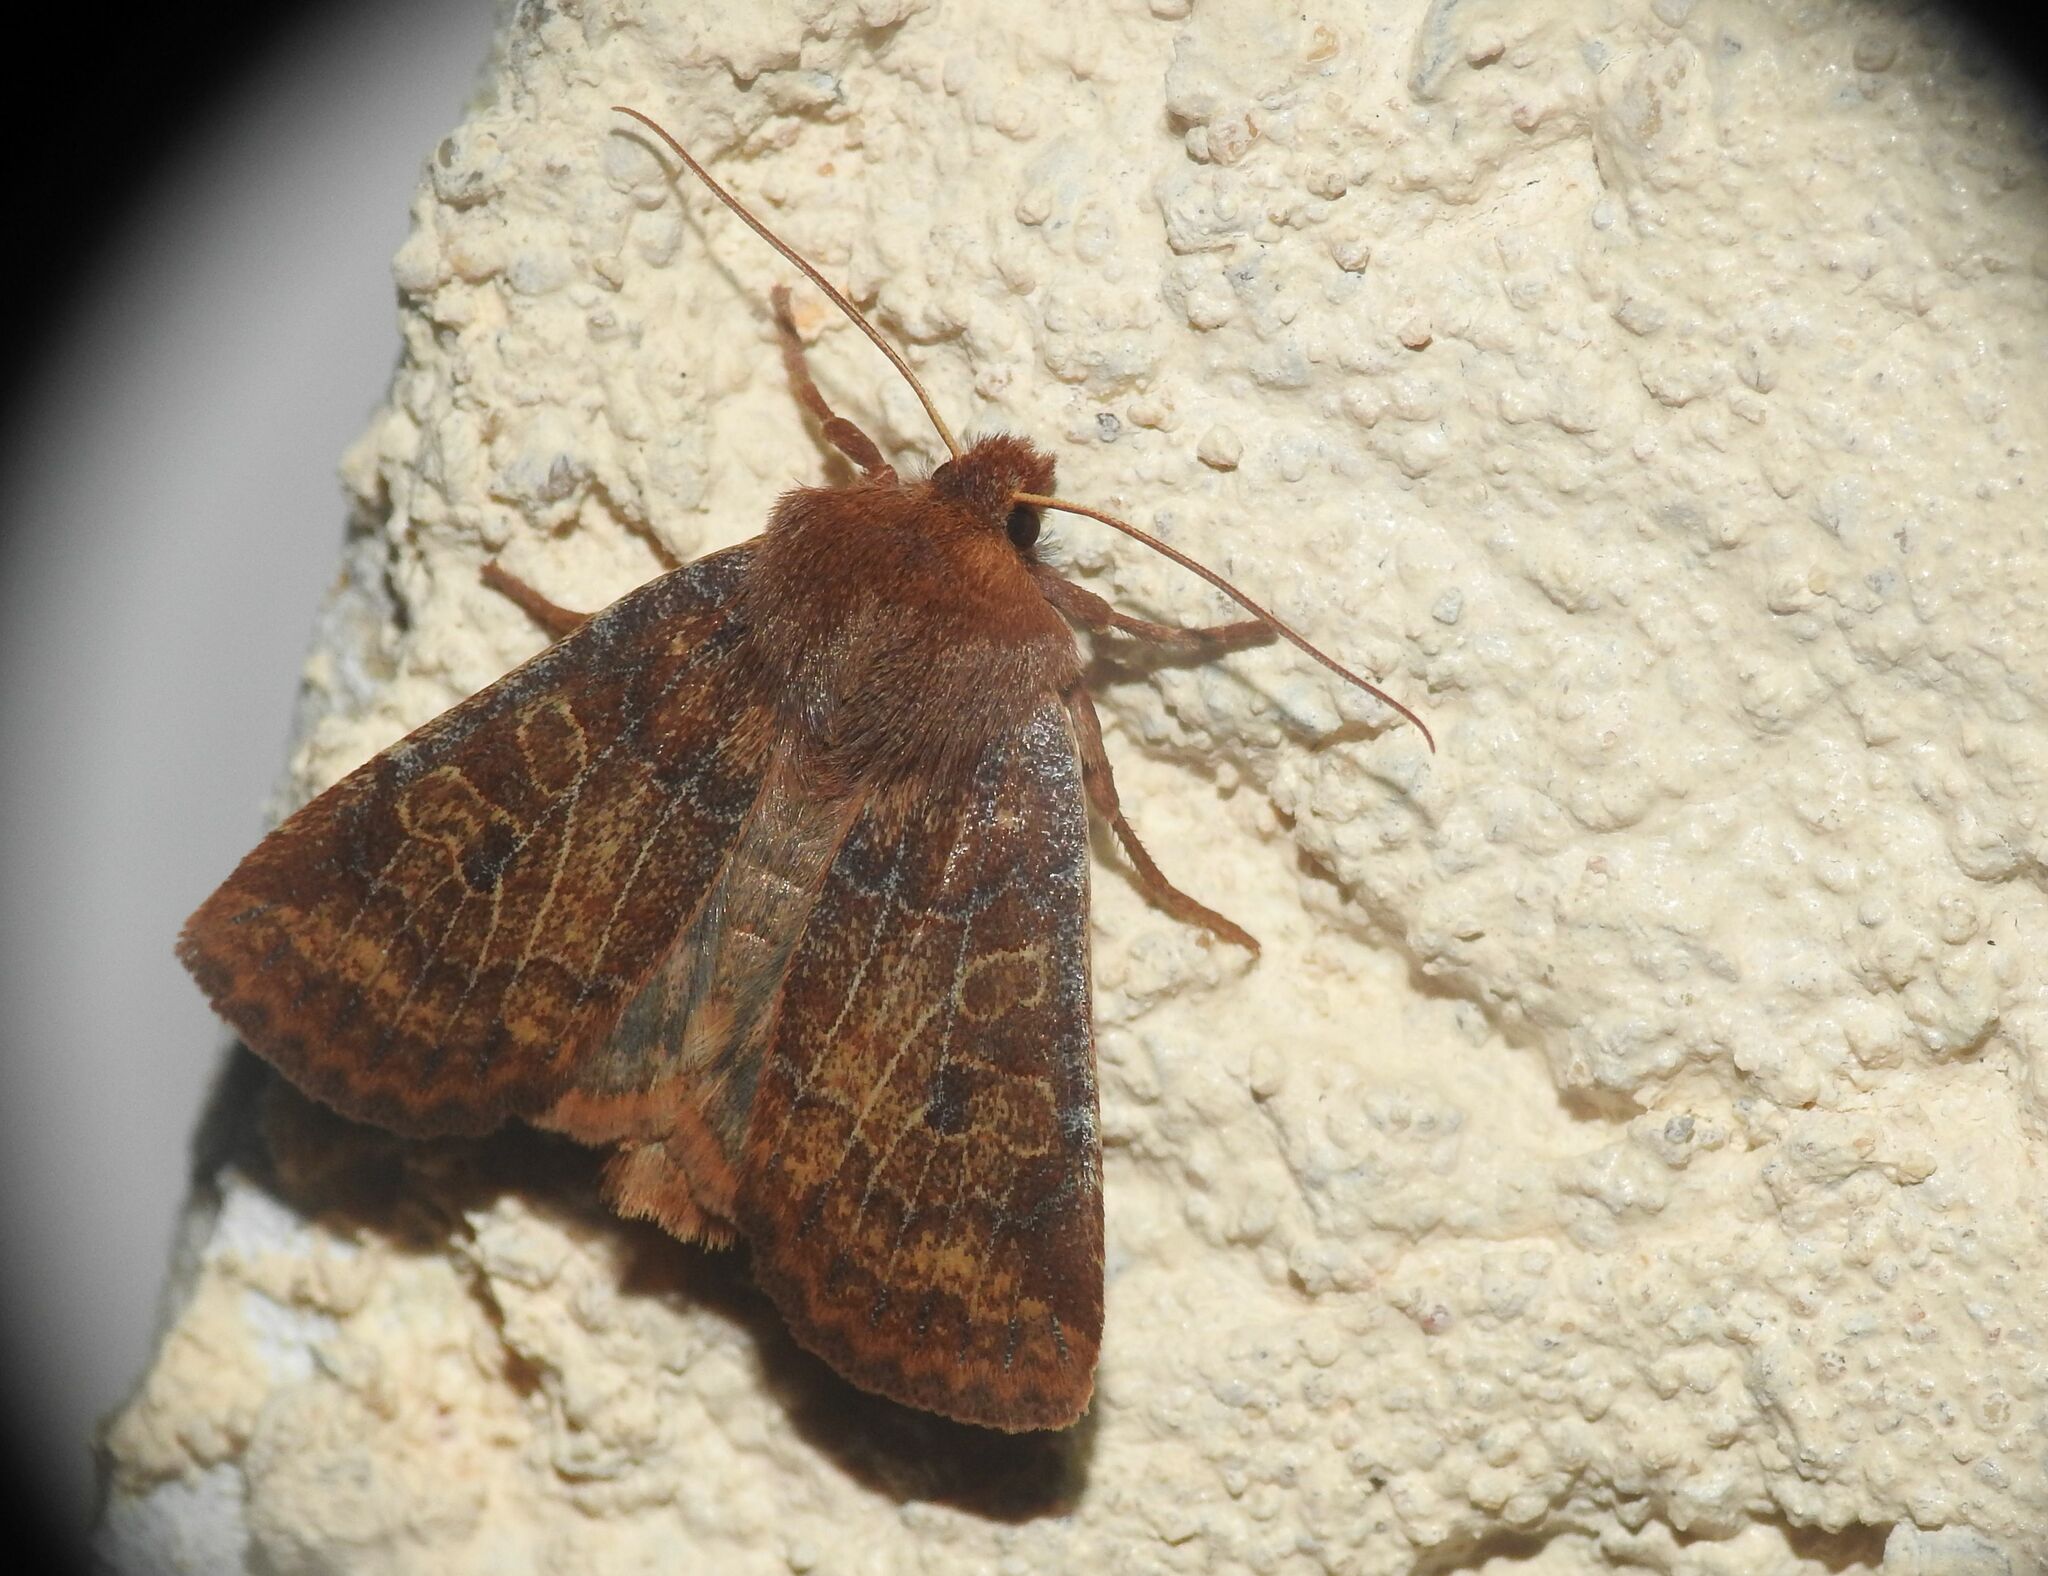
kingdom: Animalia
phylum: Arthropoda
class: Insecta
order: Lepidoptera
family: Noctuidae
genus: Conistra
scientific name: Conistra vaccinii
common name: Chestnut
